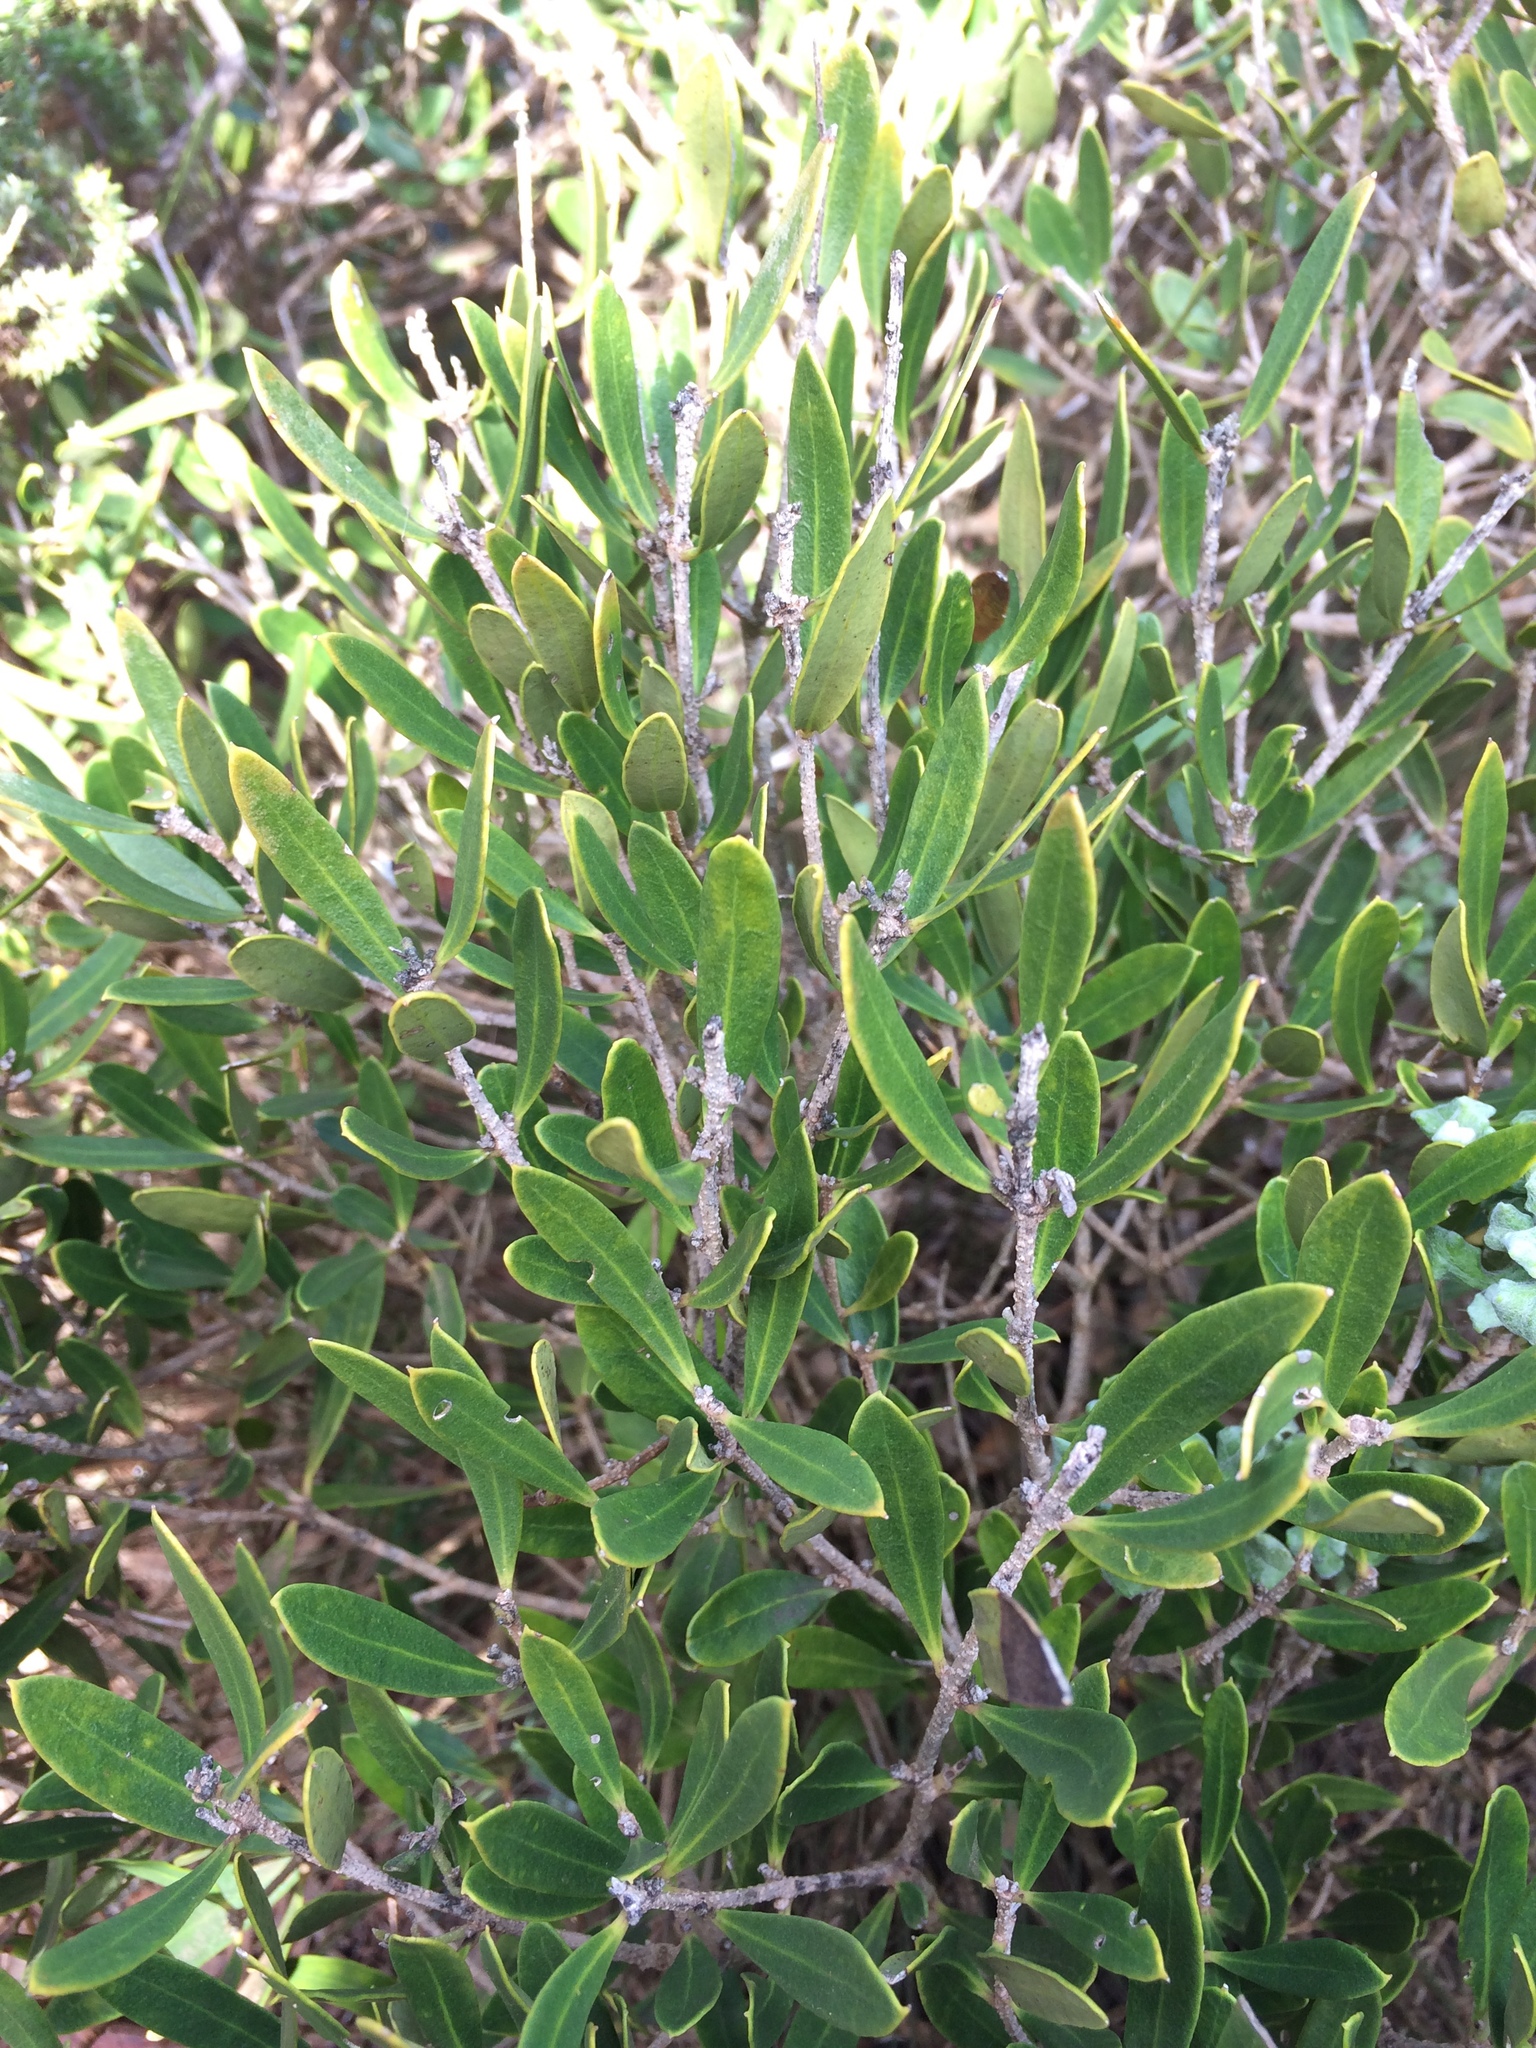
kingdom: Plantae
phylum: Tracheophyta
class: Magnoliopsida
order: Lamiales
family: Oleaceae
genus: Olea
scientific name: Olea exasperata
